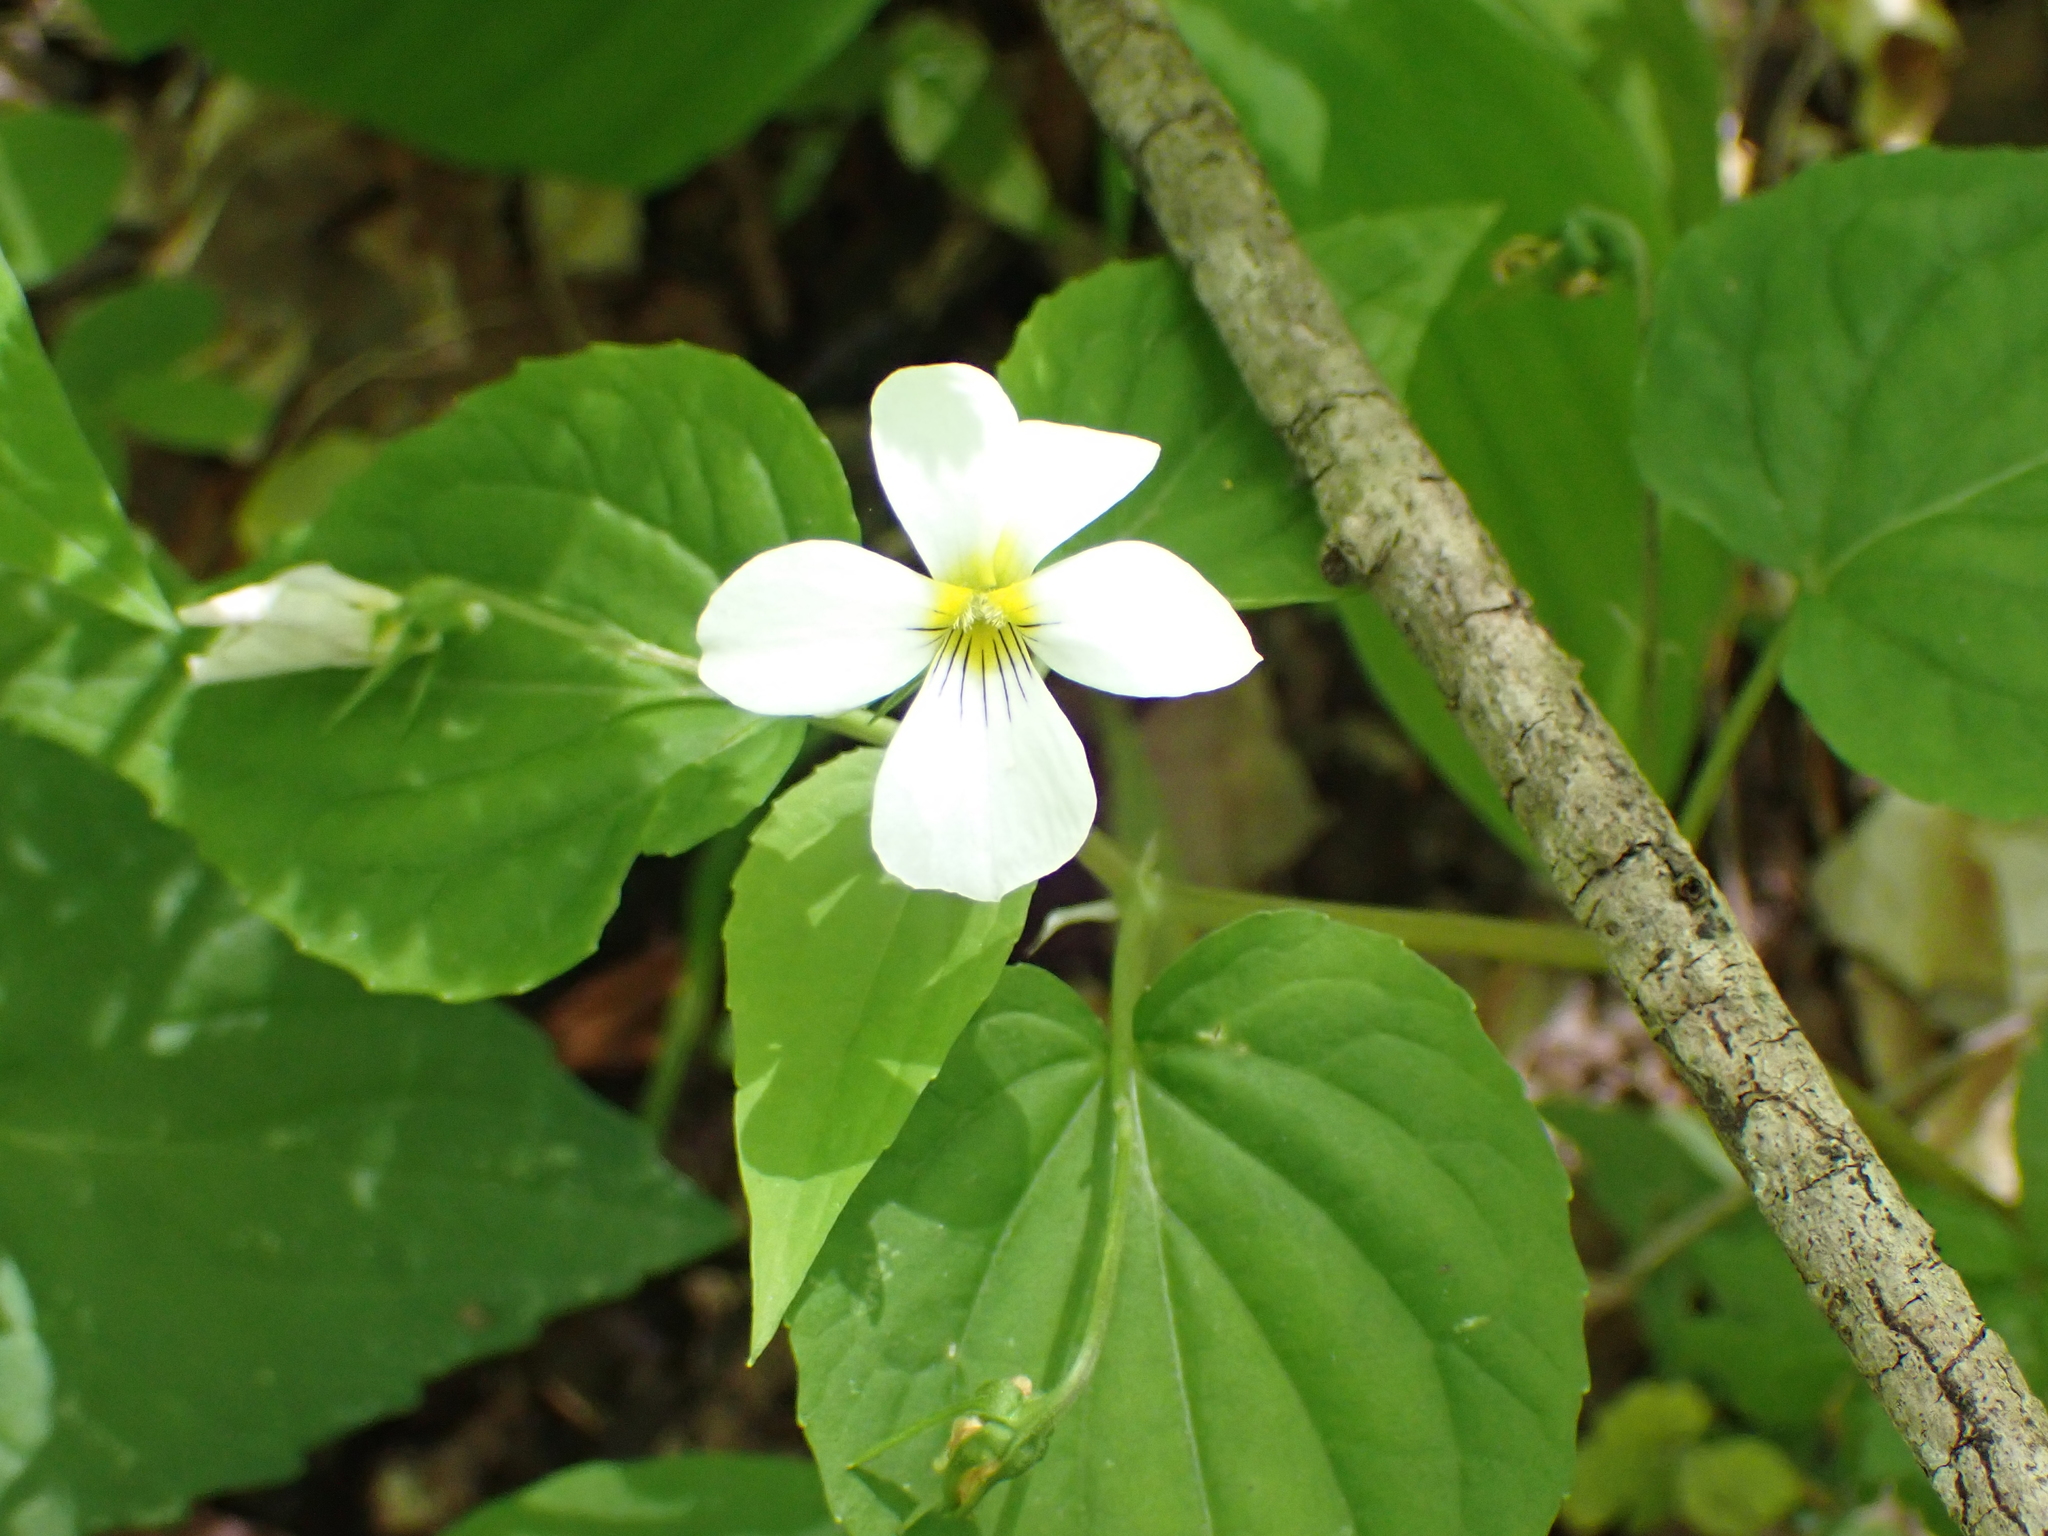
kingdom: Plantae
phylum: Tracheophyta
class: Magnoliopsida
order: Malpighiales
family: Violaceae
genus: Viola
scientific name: Viola canadensis
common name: Canada violet
